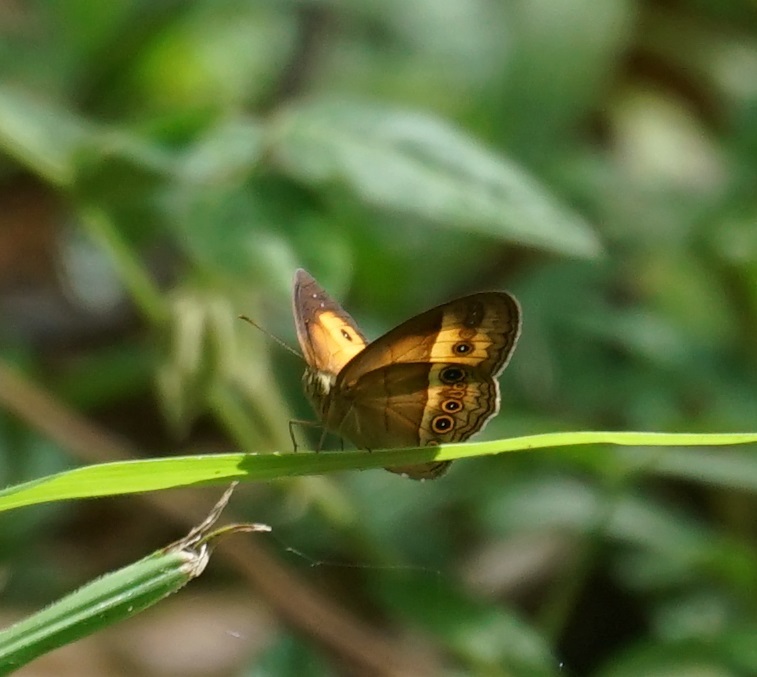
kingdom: Animalia
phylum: Arthropoda
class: Insecta
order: Lepidoptera
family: Nymphalidae
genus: Mycalesis
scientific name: Mycalesis terminus
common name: Orange bushbrown
